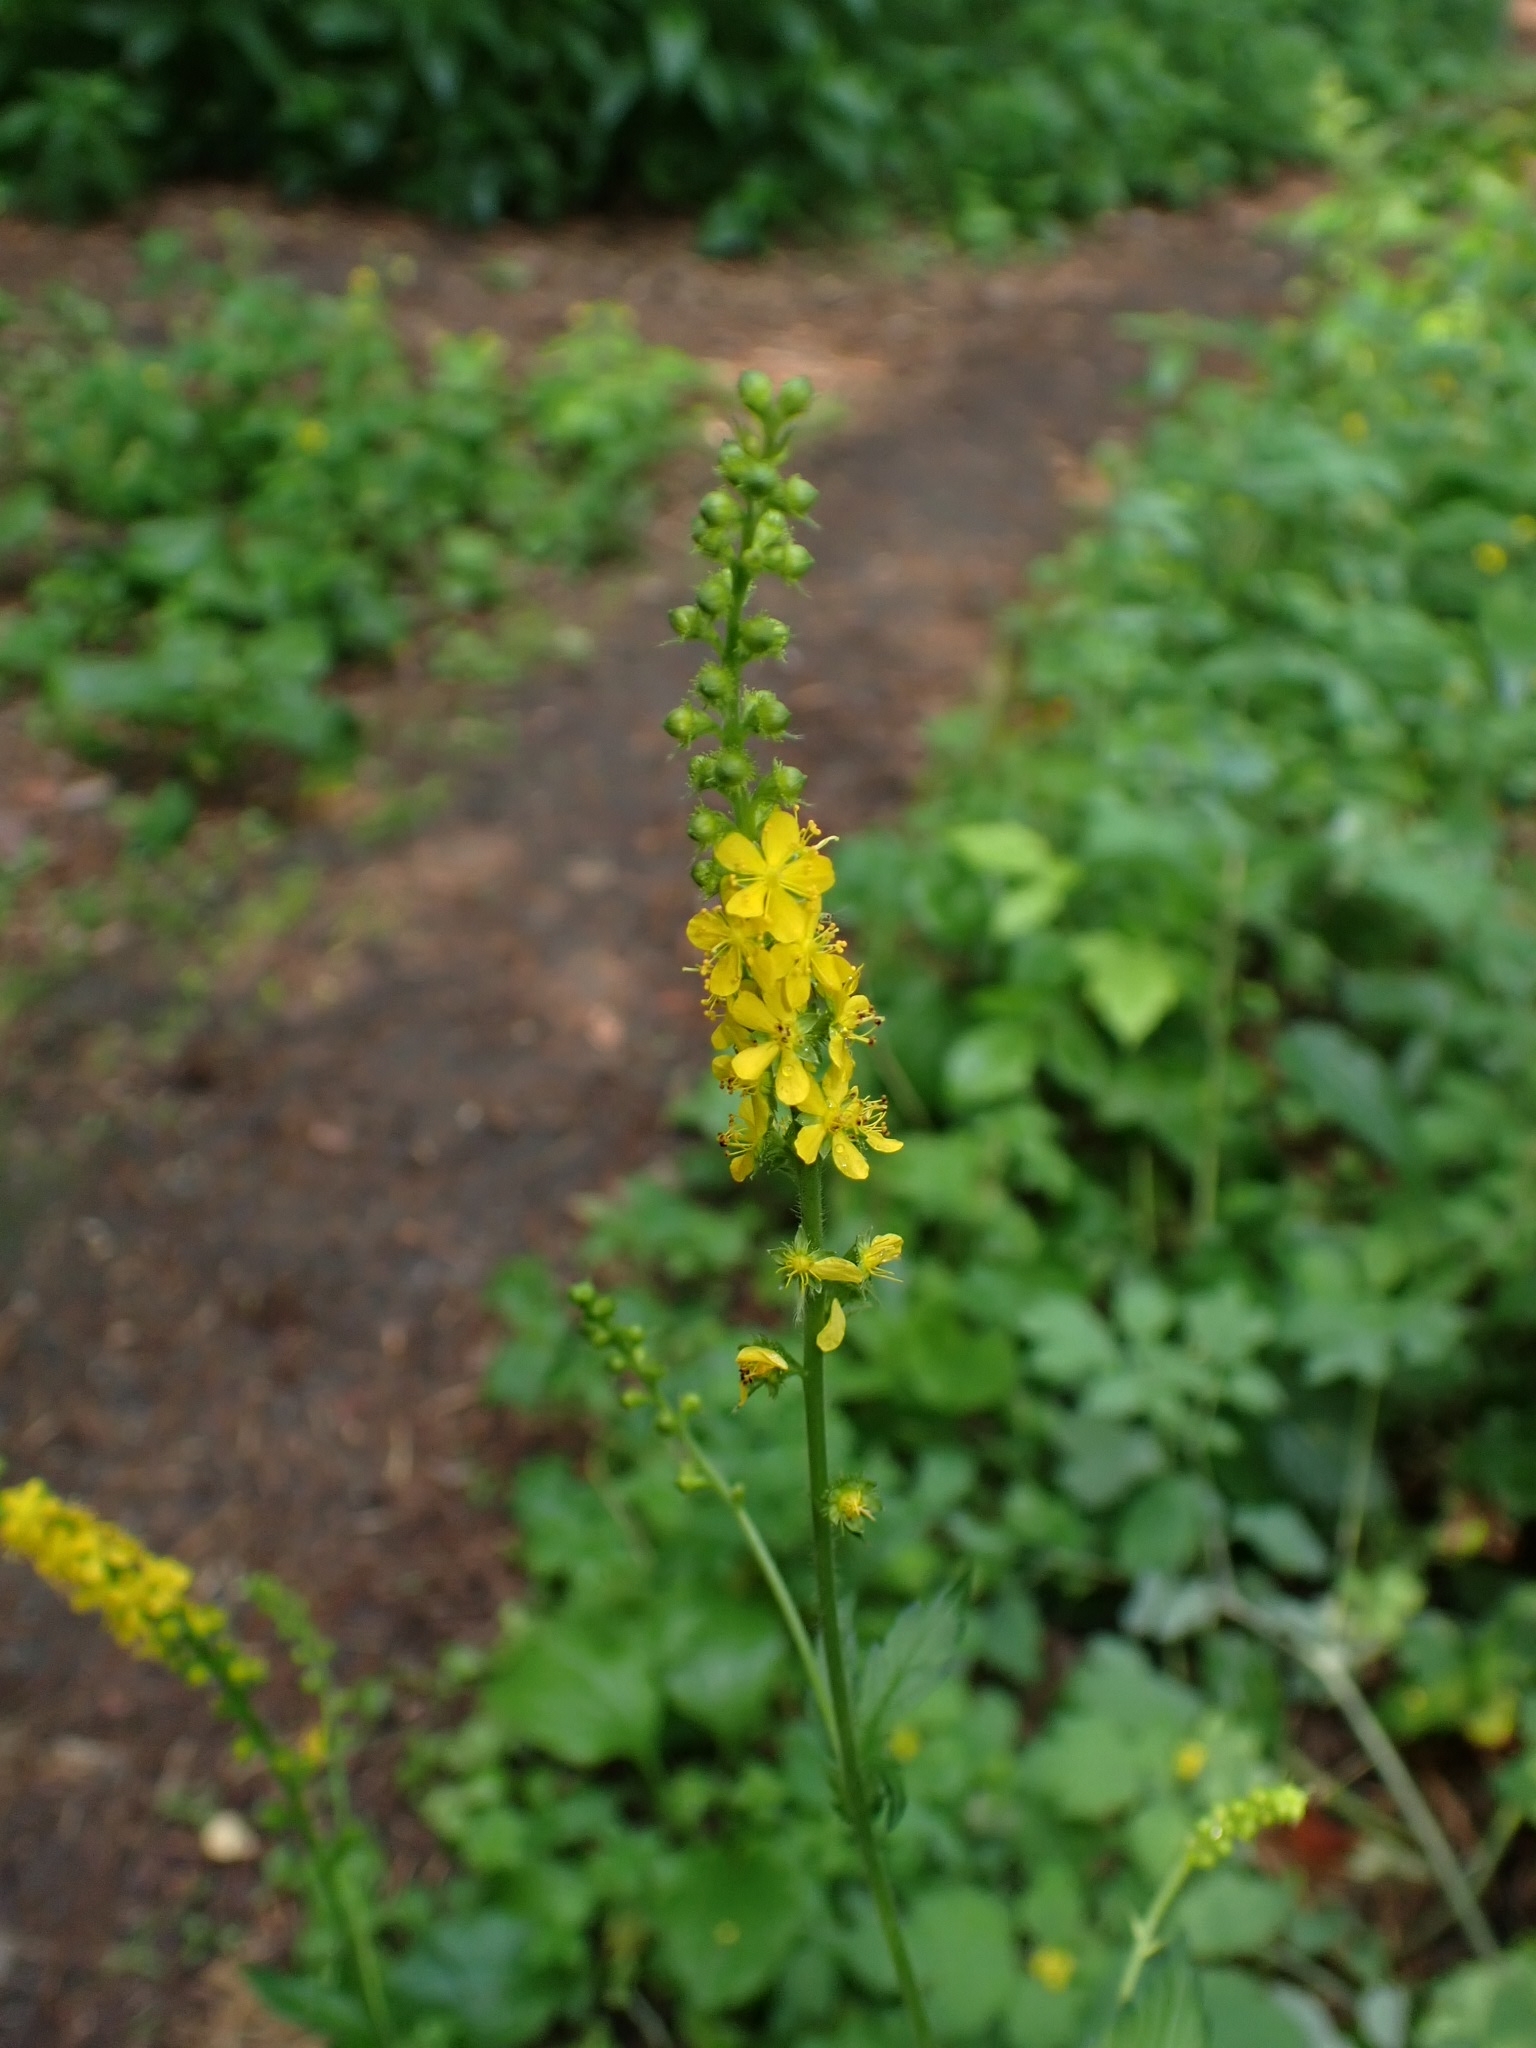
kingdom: Plantae
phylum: Tracheophyta
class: Magnoliopsida
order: Rosales
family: Rosaceae
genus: Agrimonia
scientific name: Agrimonia pilosa
